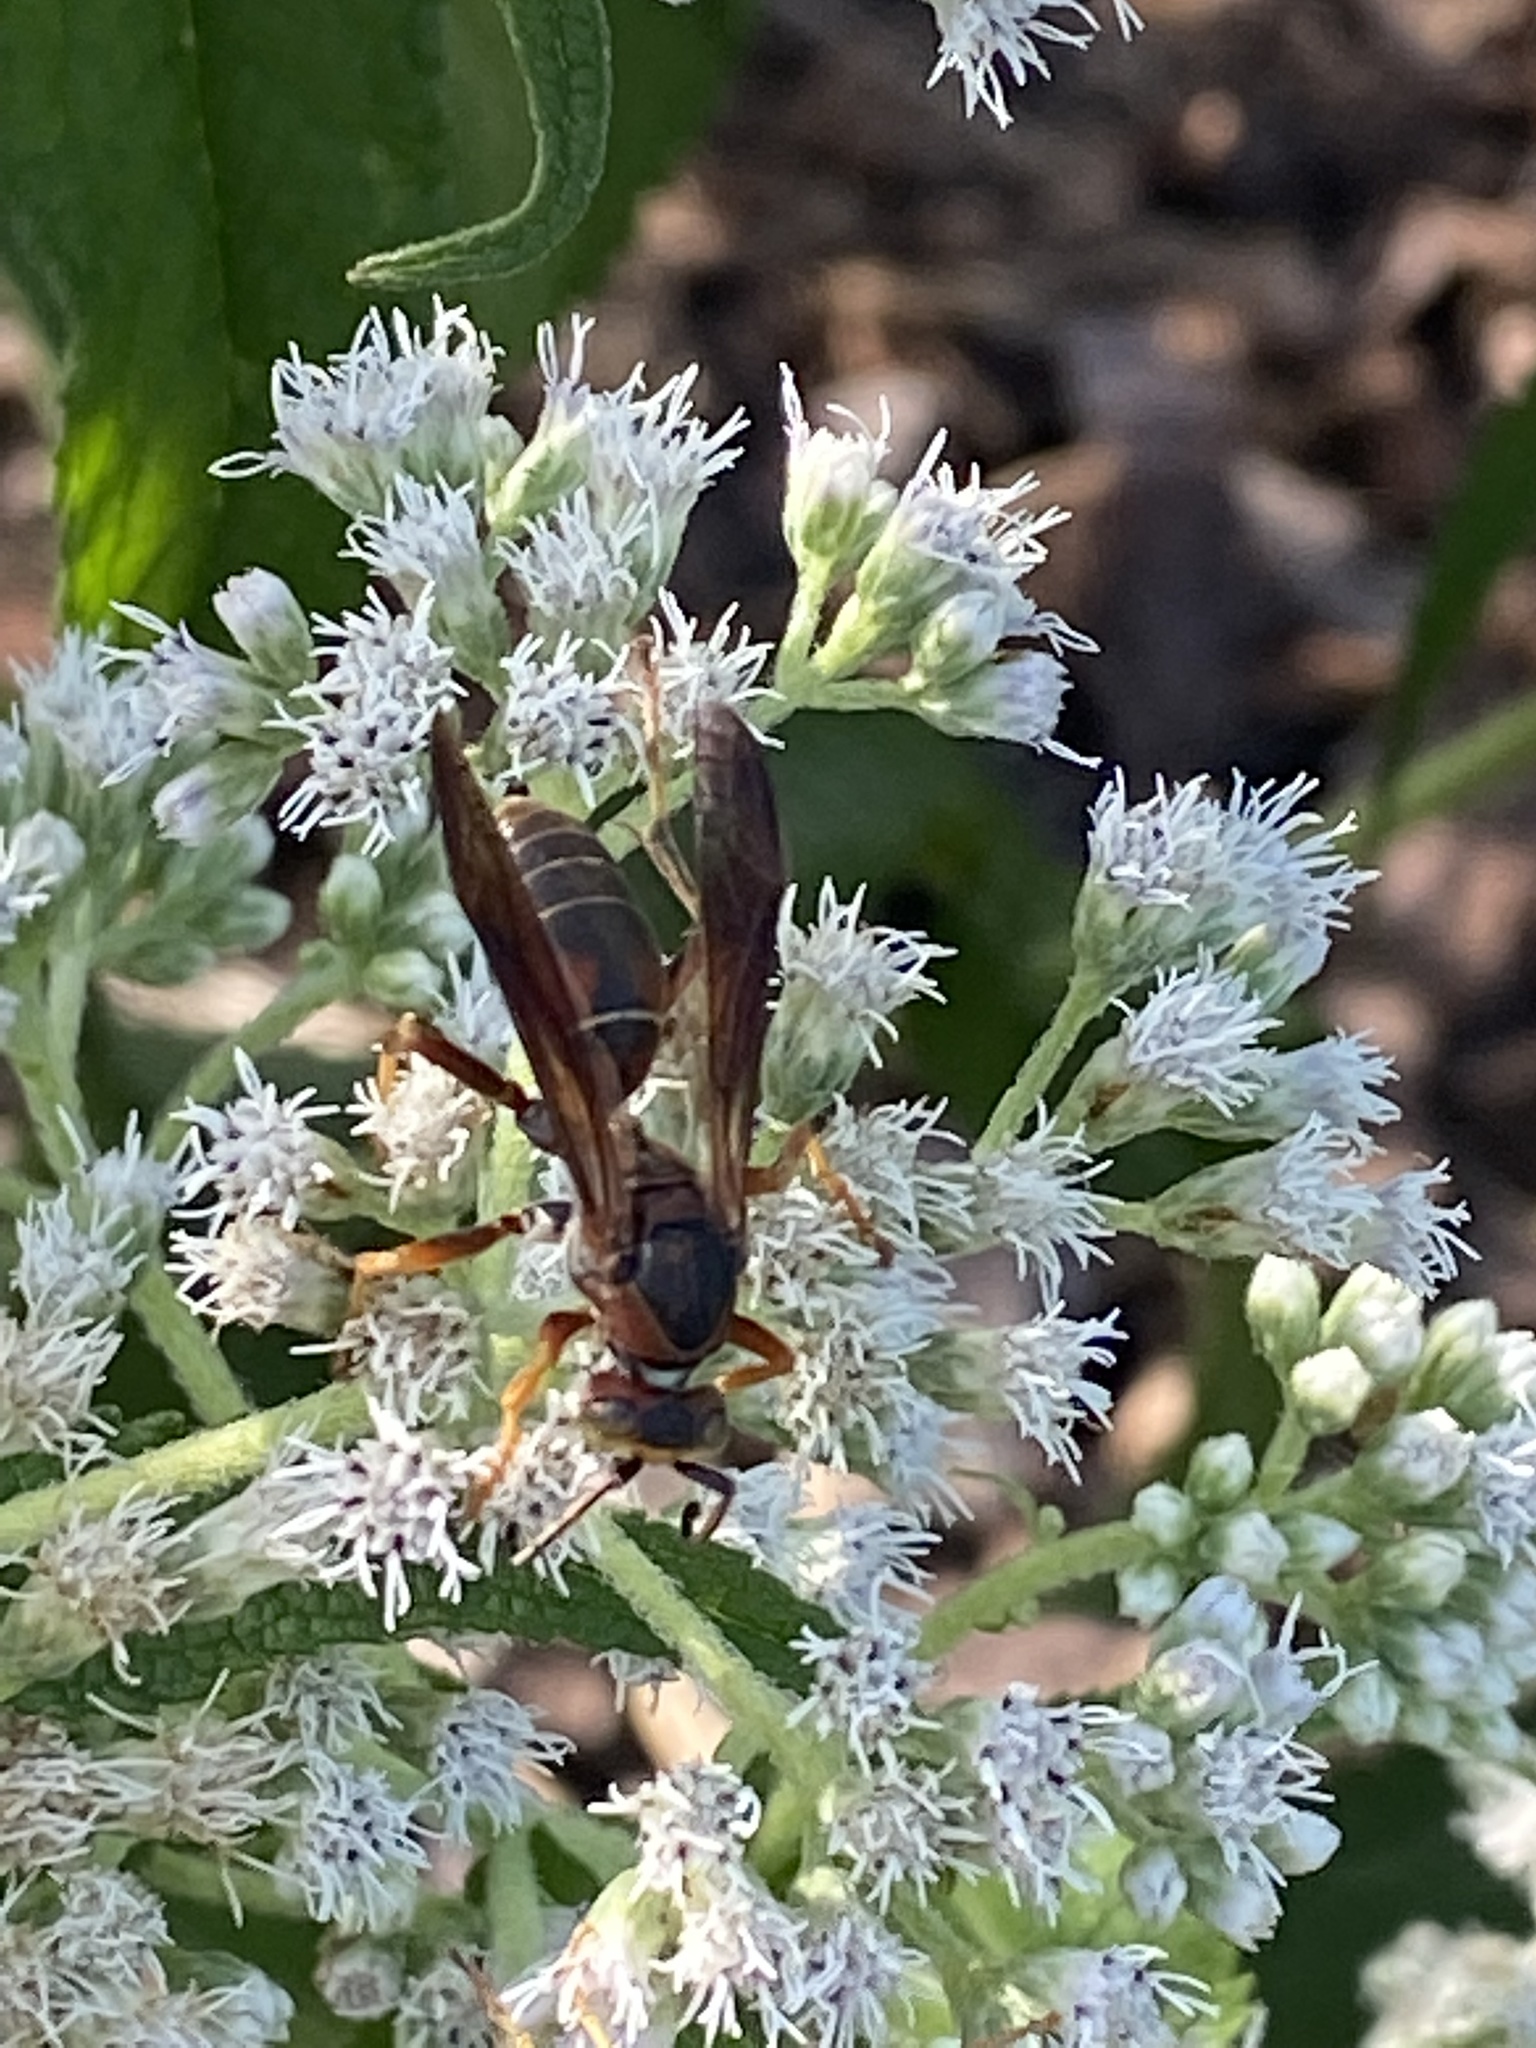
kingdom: Animalia
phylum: Arthropoda
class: Insecta
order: Hymenoptera
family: Eumenidae
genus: Polistes
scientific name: Polistes fuscatus
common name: Dark paper wasp
